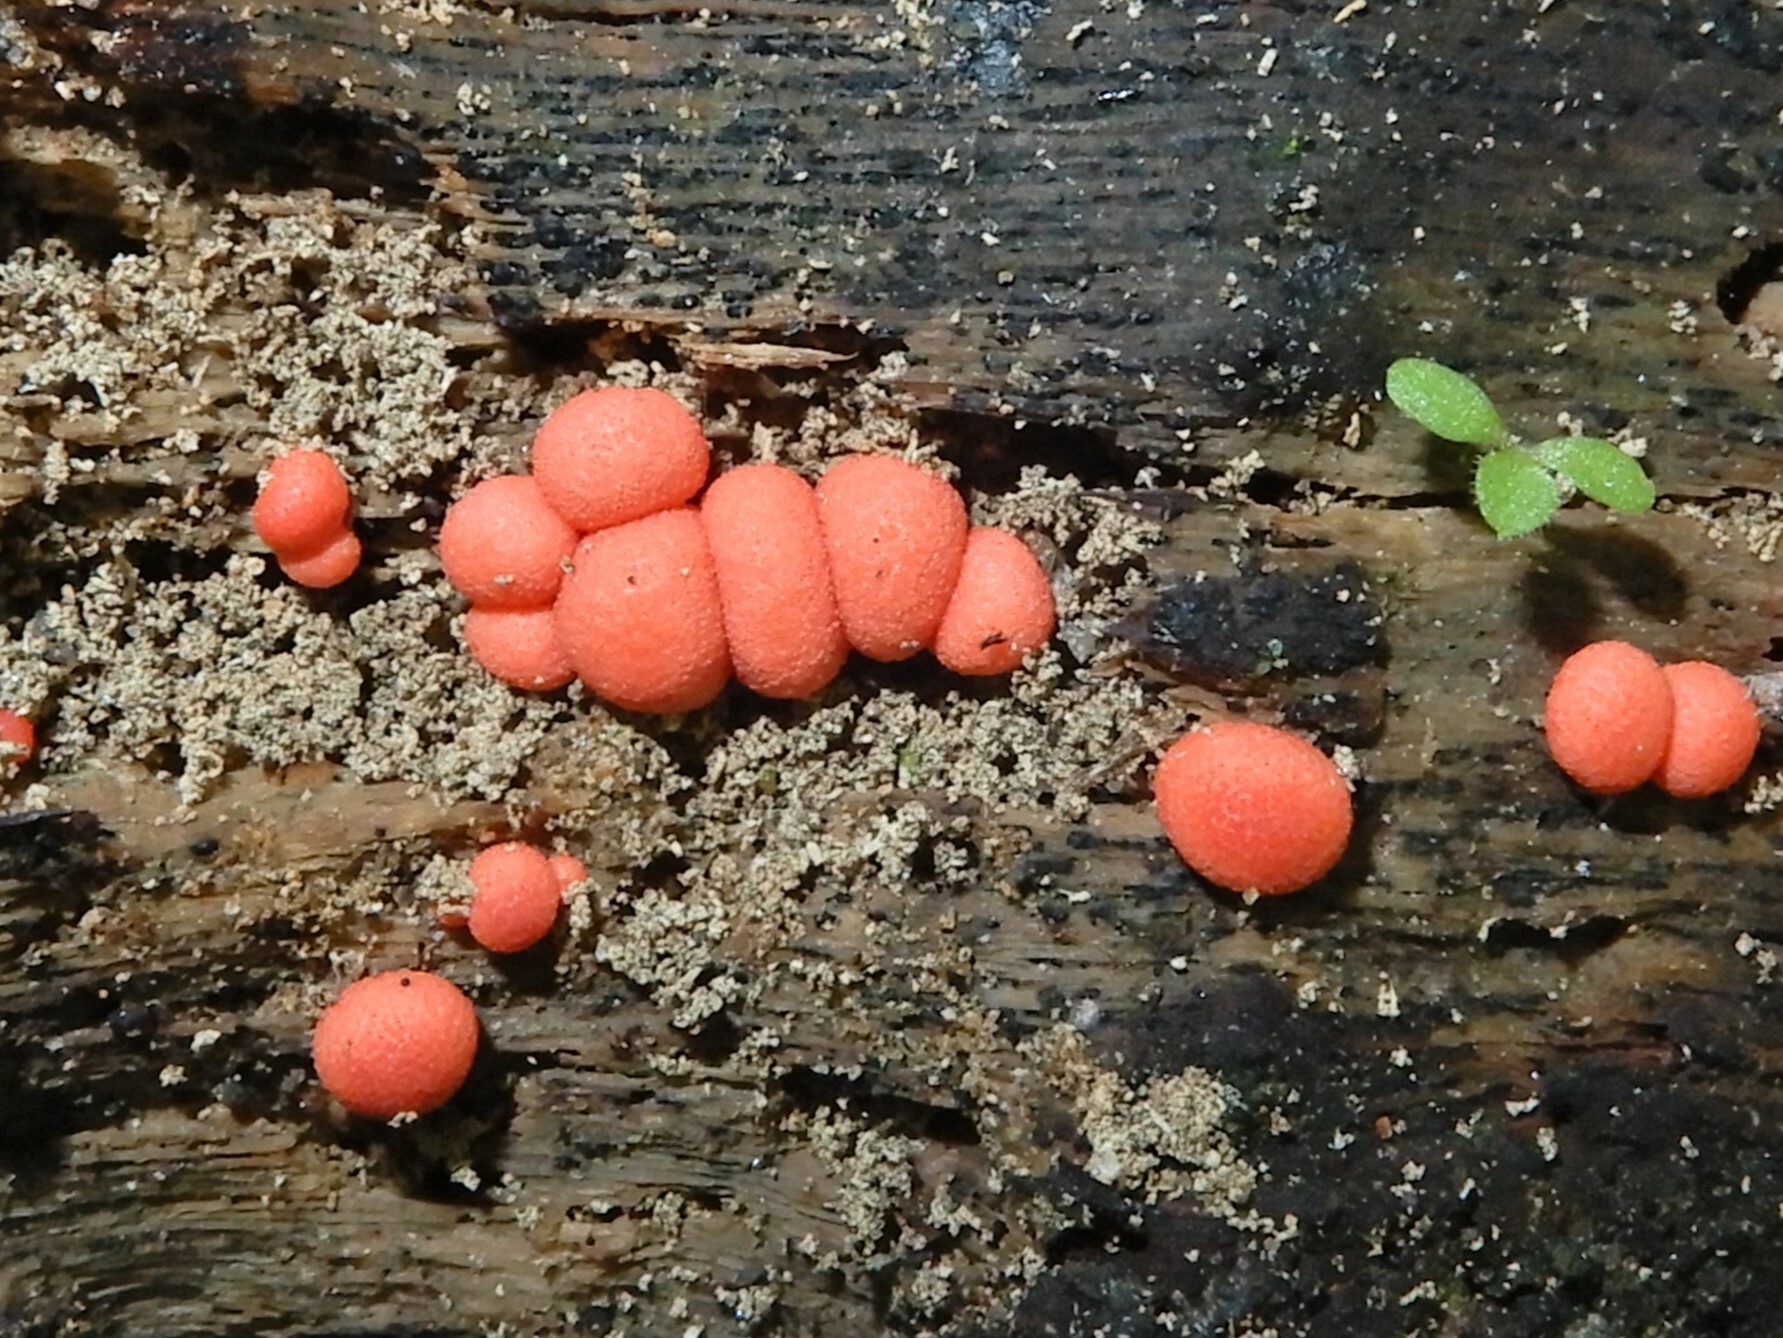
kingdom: Protozoa
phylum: Mycetozoa
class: Myxomycetes
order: Cribrariales
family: Tubiferaceae
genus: Lycogala
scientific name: Lycogala epidendrum
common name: Wolf's milk
